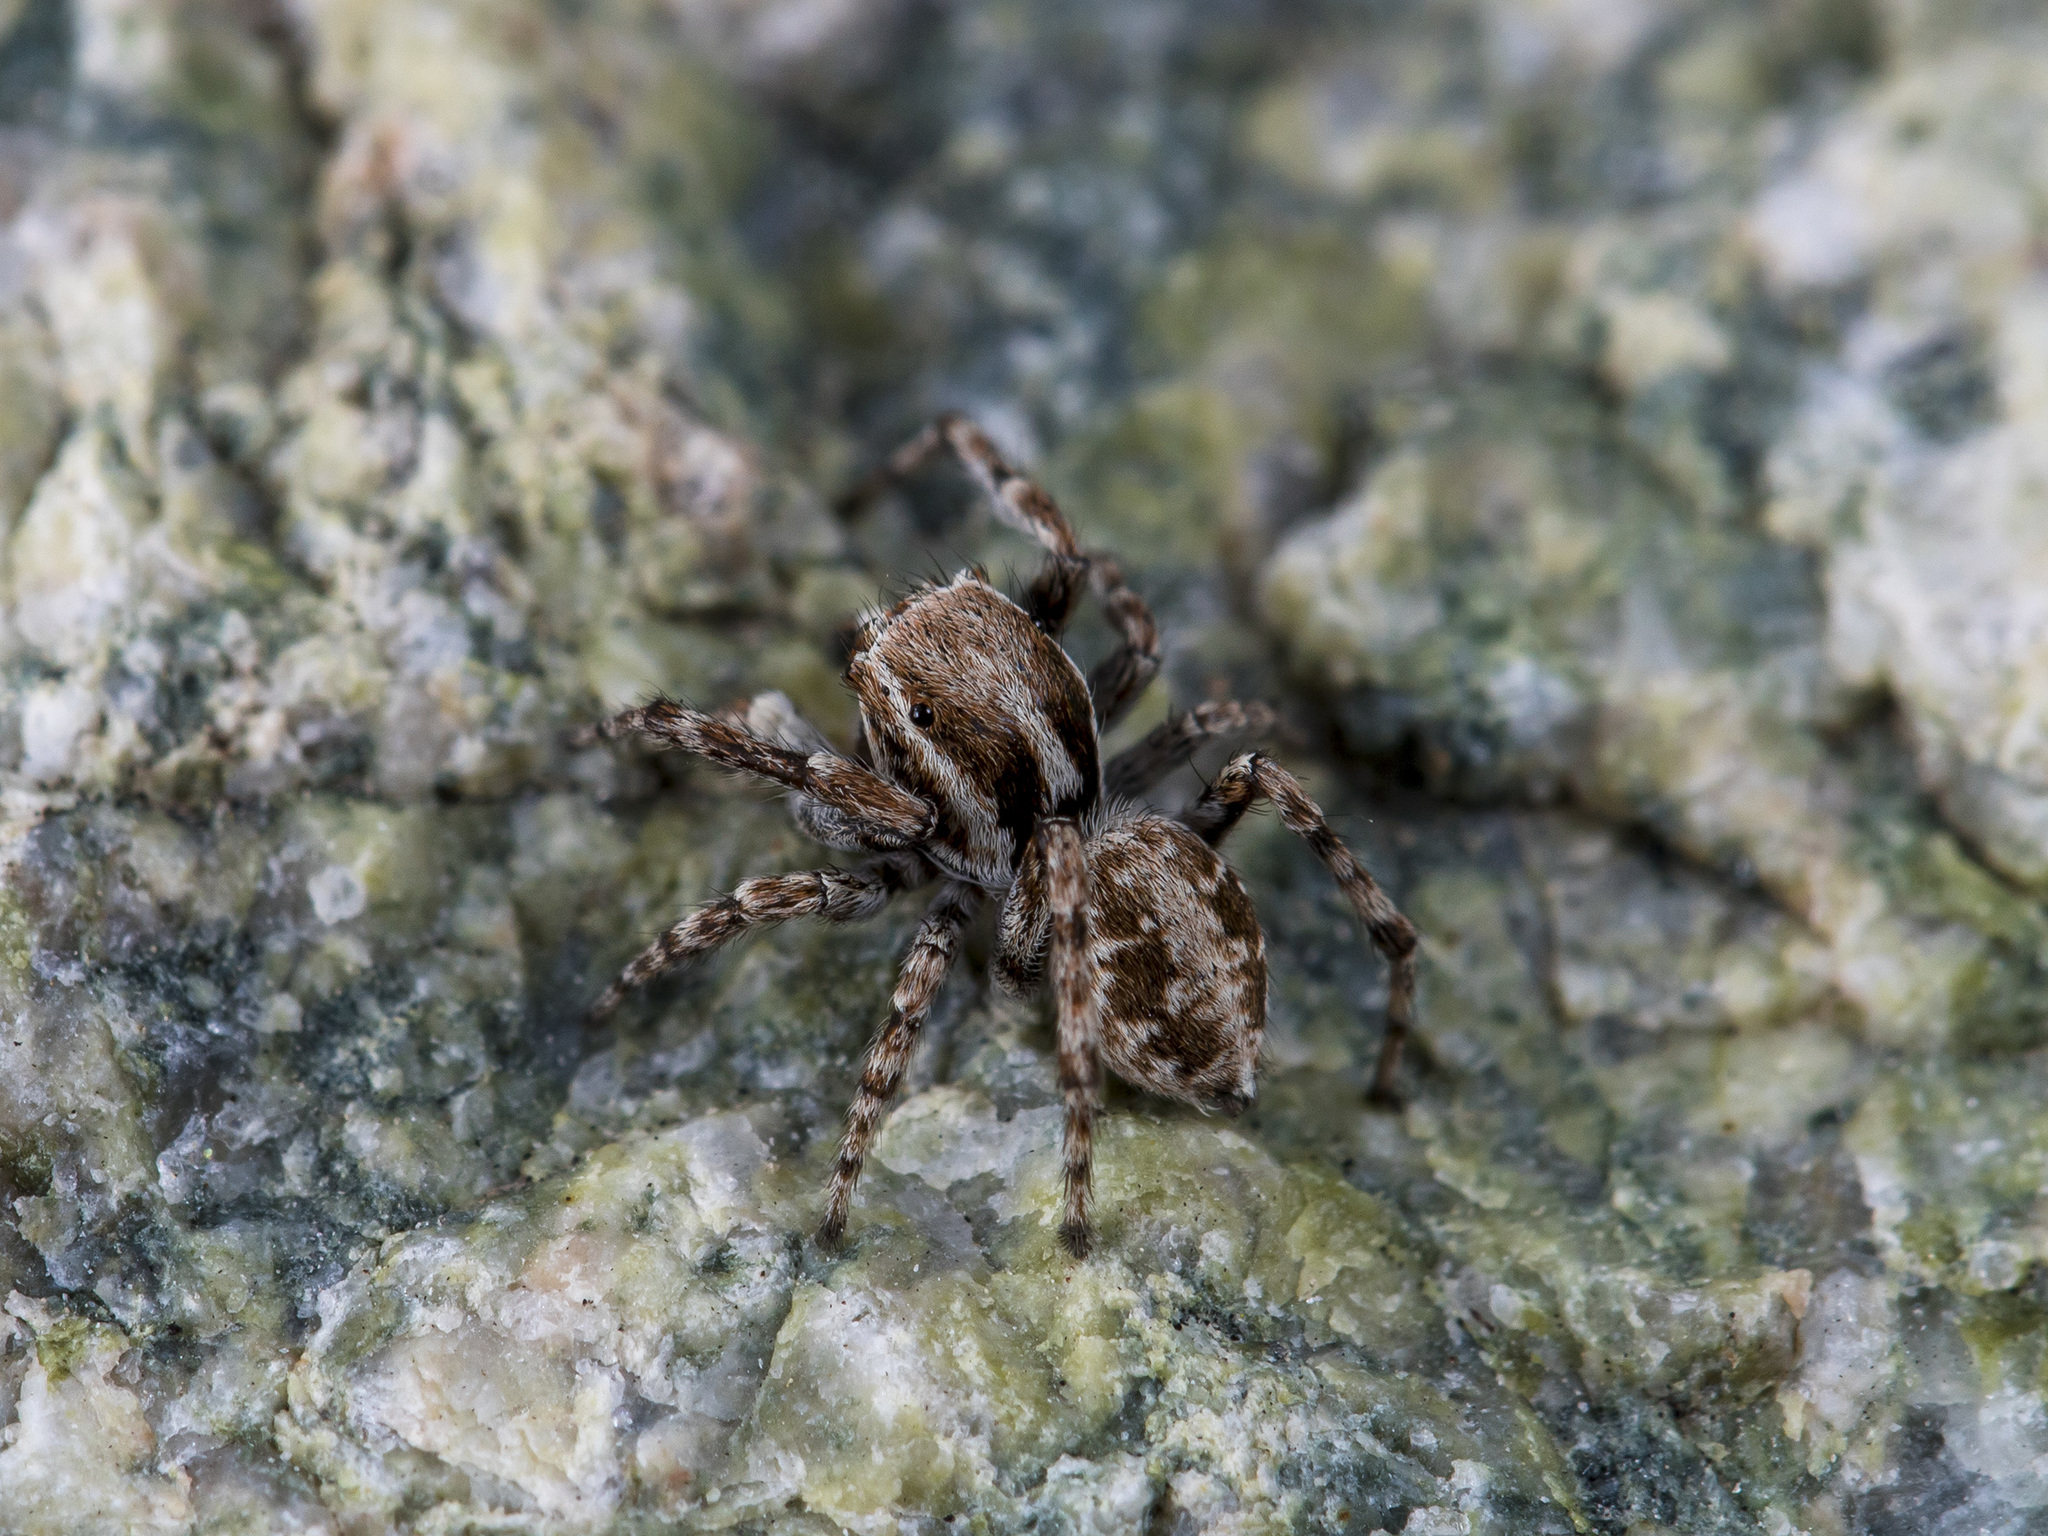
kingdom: Animalia
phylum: Arthropoda
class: Arachnida
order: Araneae
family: Salticidae
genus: Attulus
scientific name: Attulus avocator
